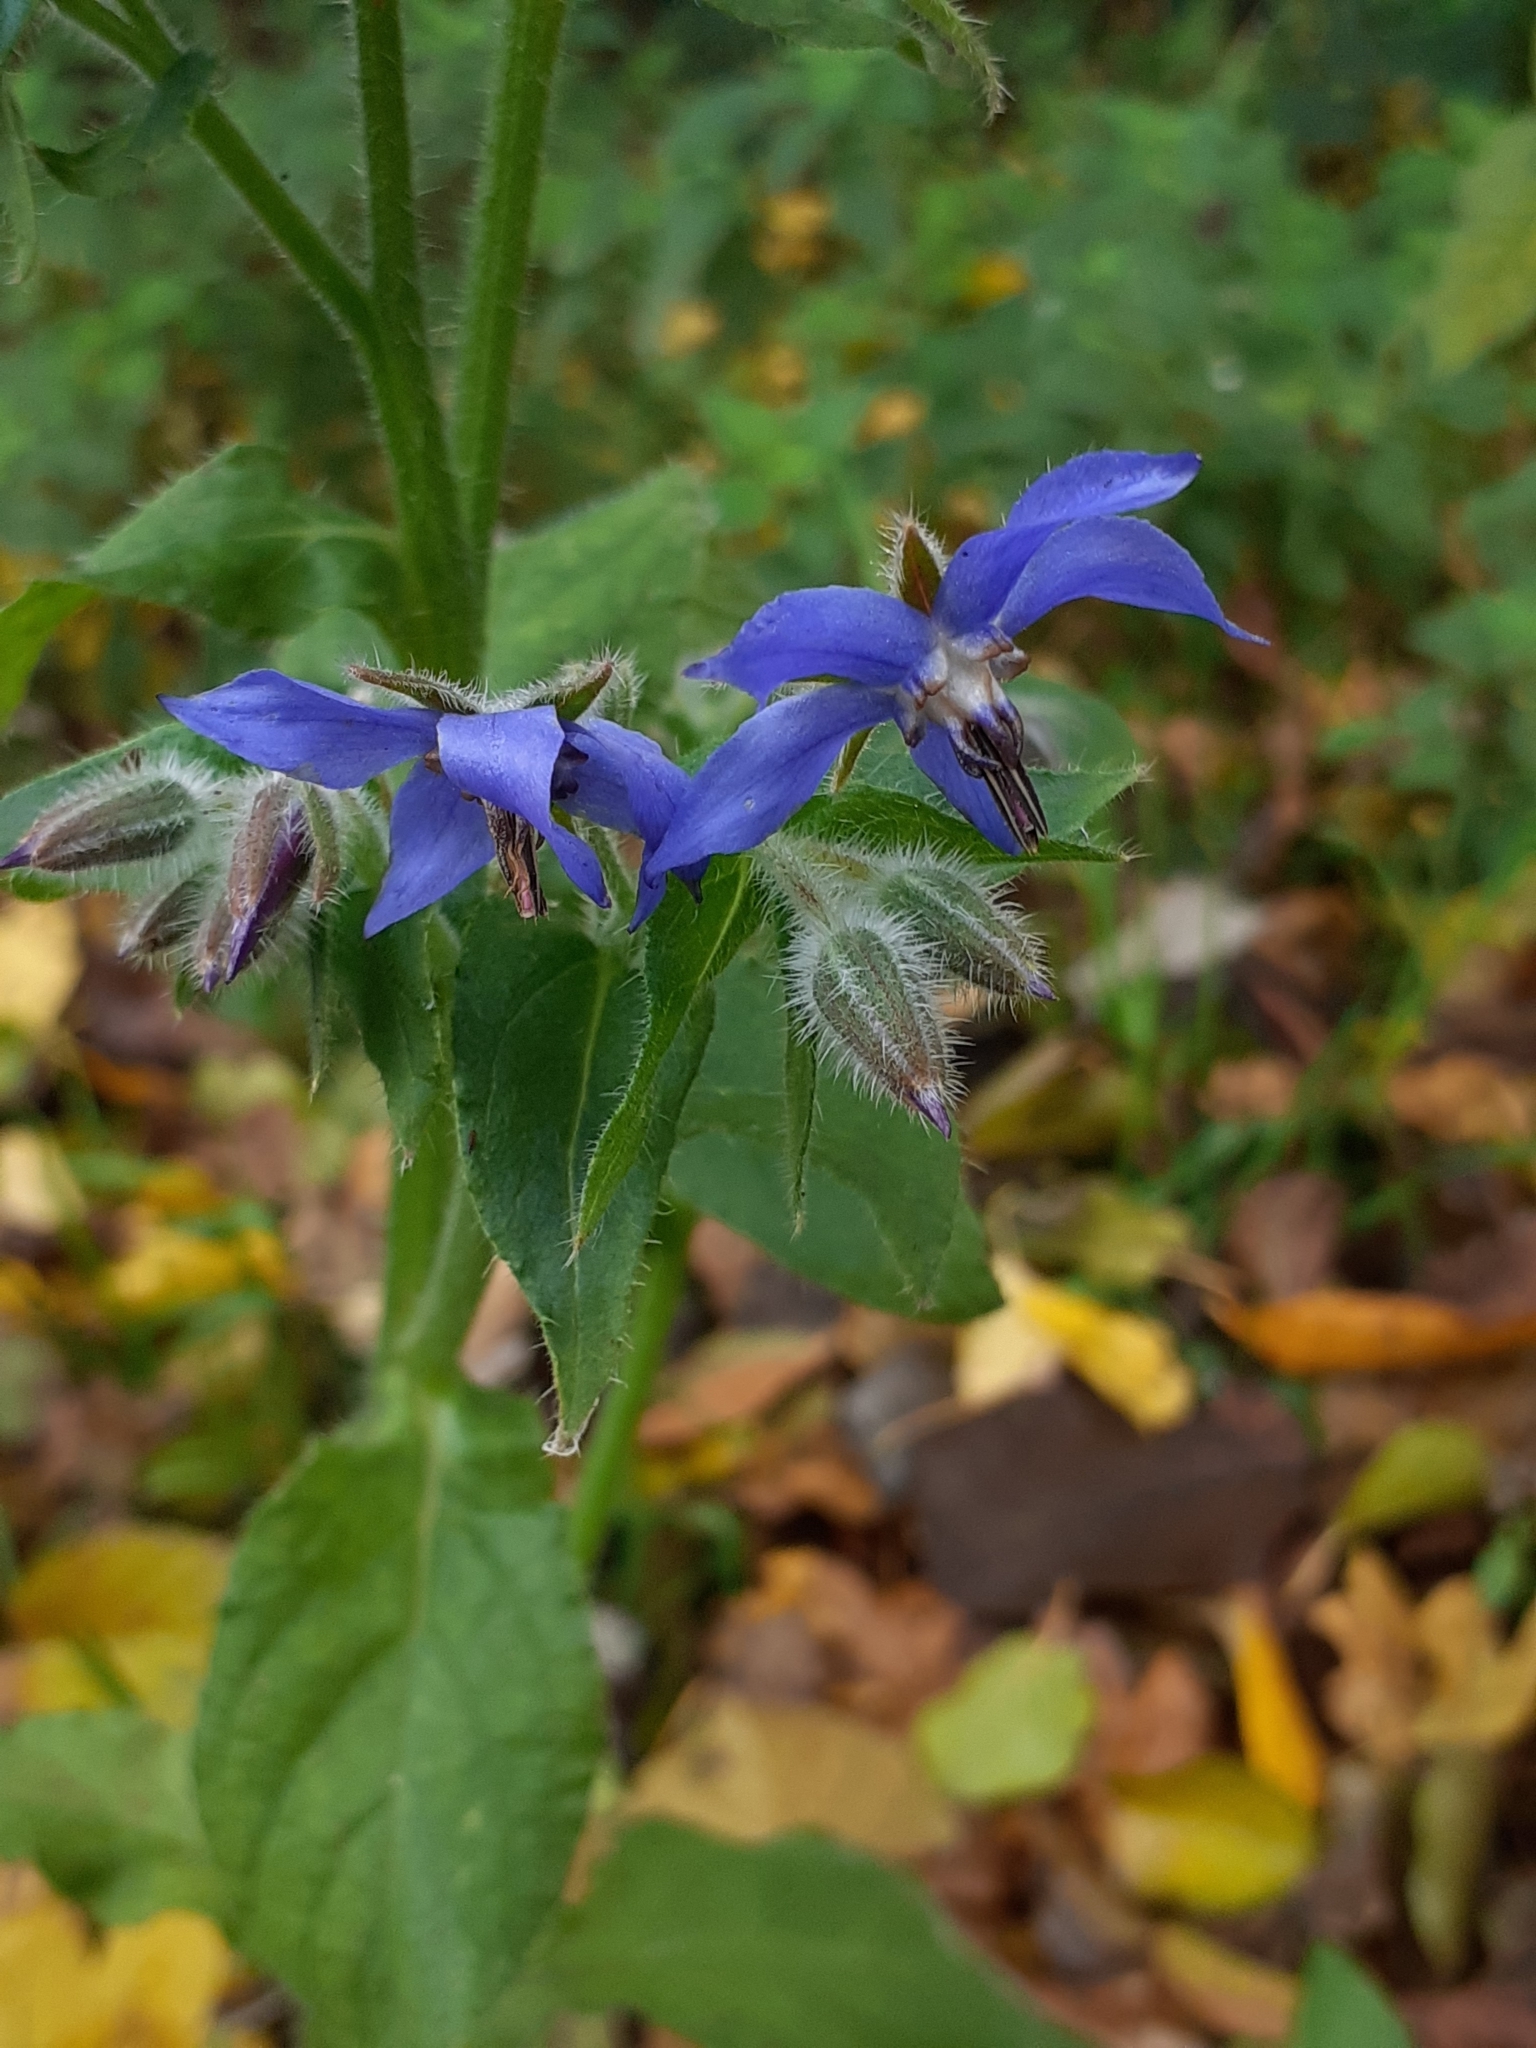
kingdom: Plantae
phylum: Tracheophyta
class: Magnoliopsida
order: Boraginales
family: Boraginaceae
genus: Borago
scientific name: Borago officinalis
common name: Borage
